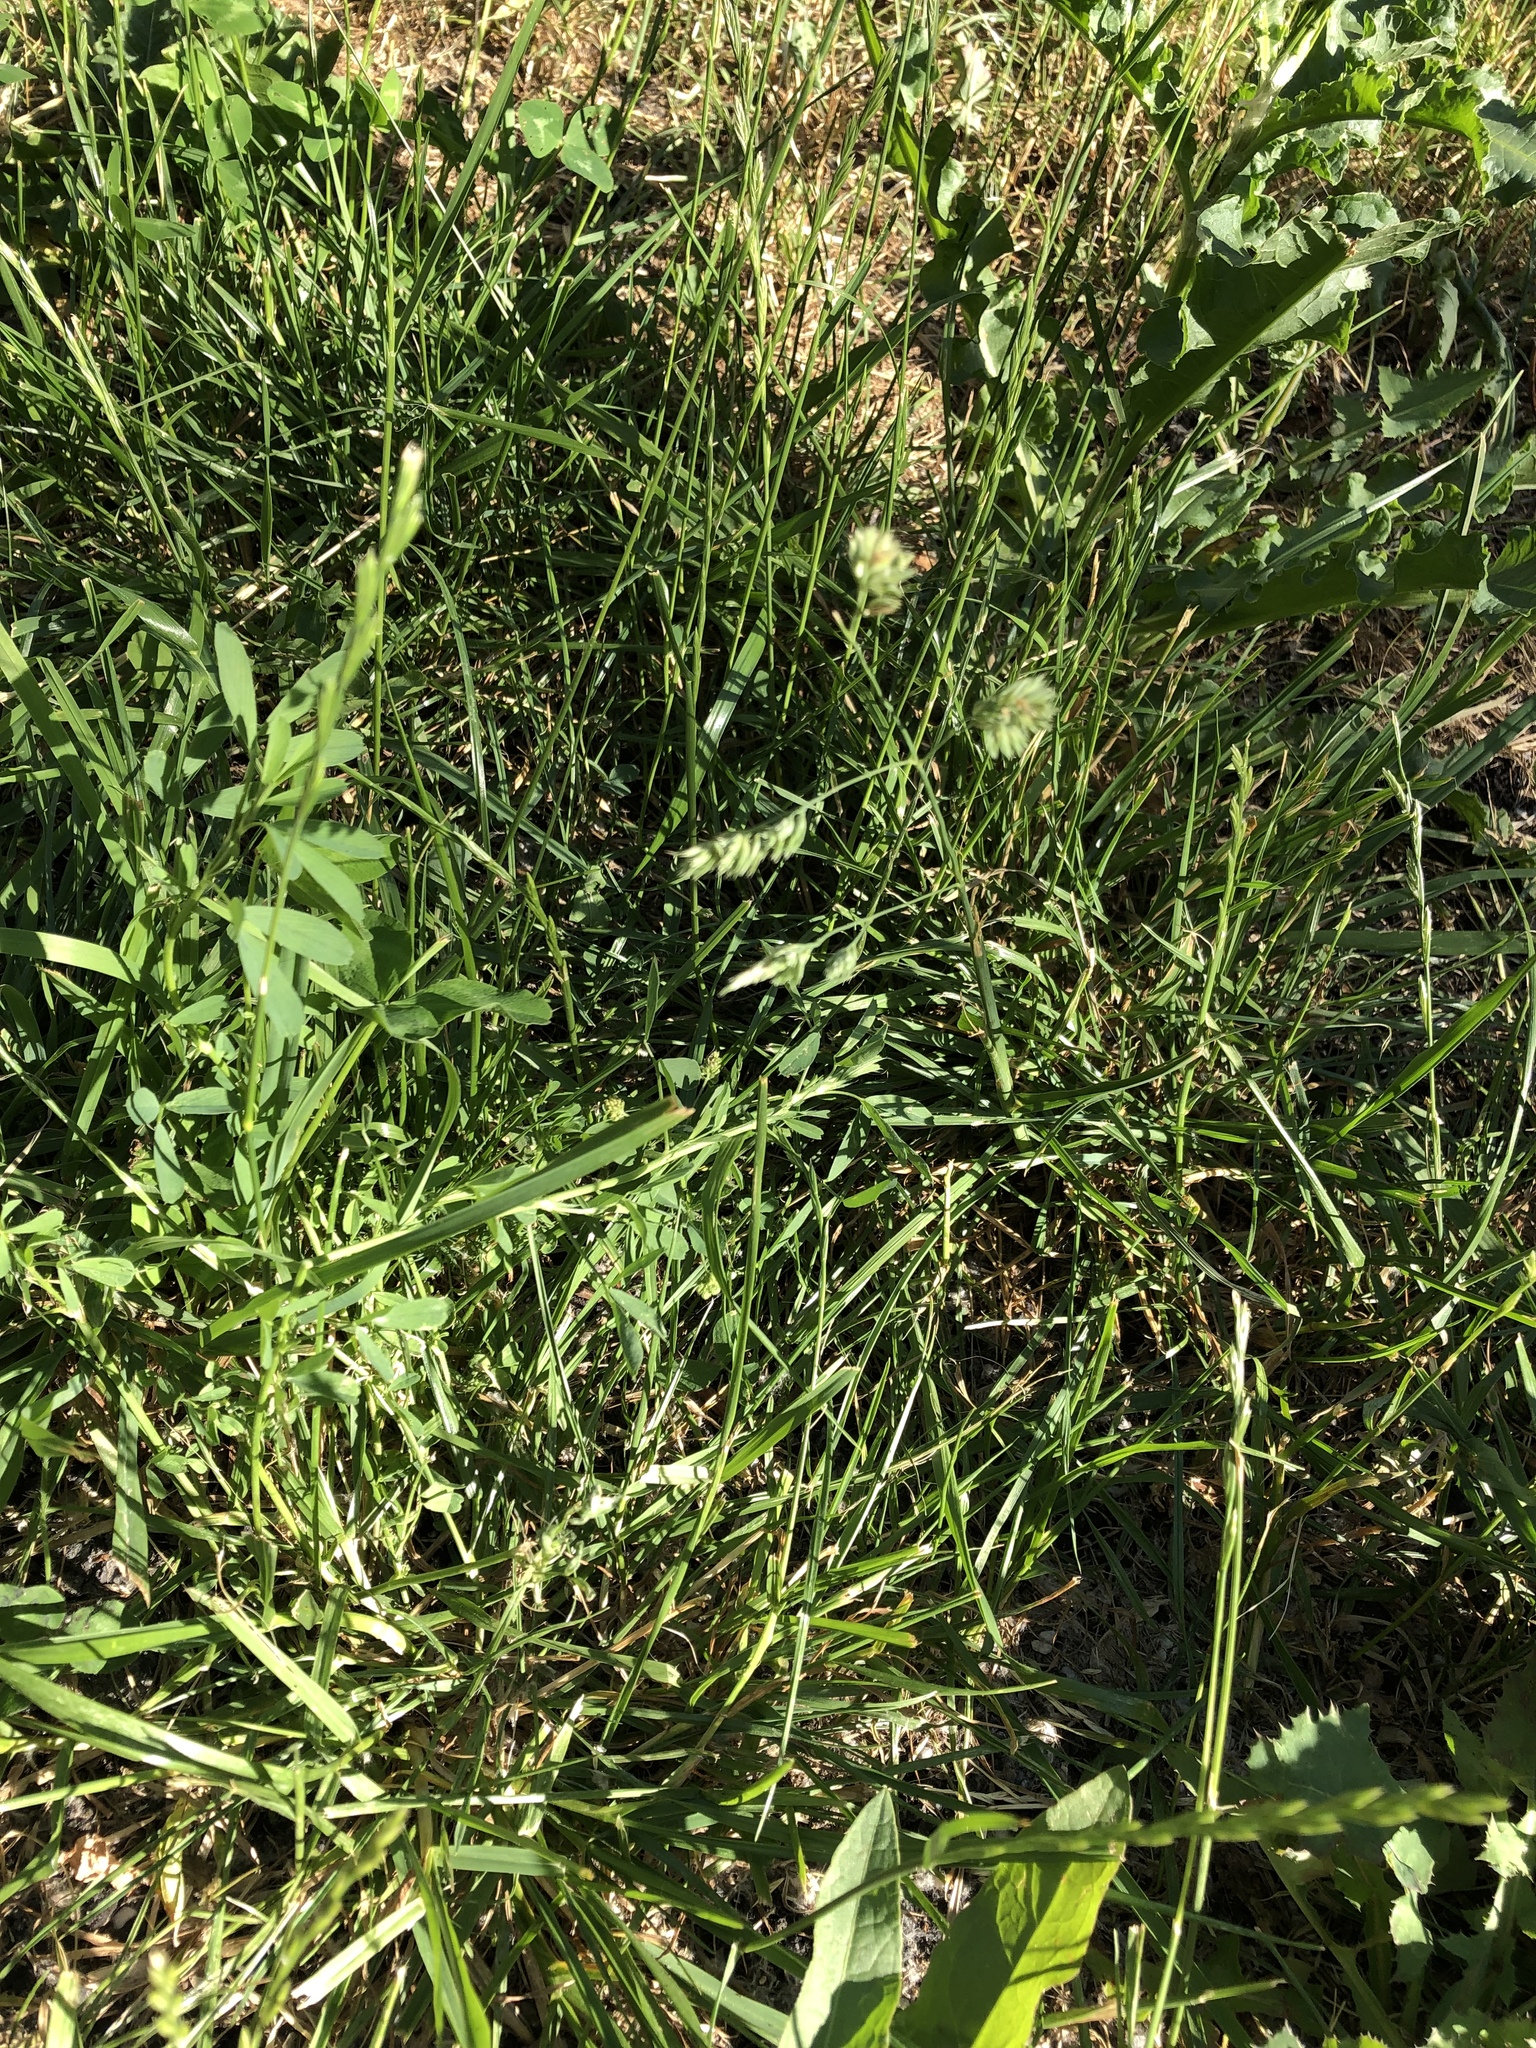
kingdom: Plantae
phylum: Tracheophyta
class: Liliopsida
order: Poales
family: Poaceae
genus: Dactylis
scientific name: Dactylis glomerata
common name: Orchardgrass
